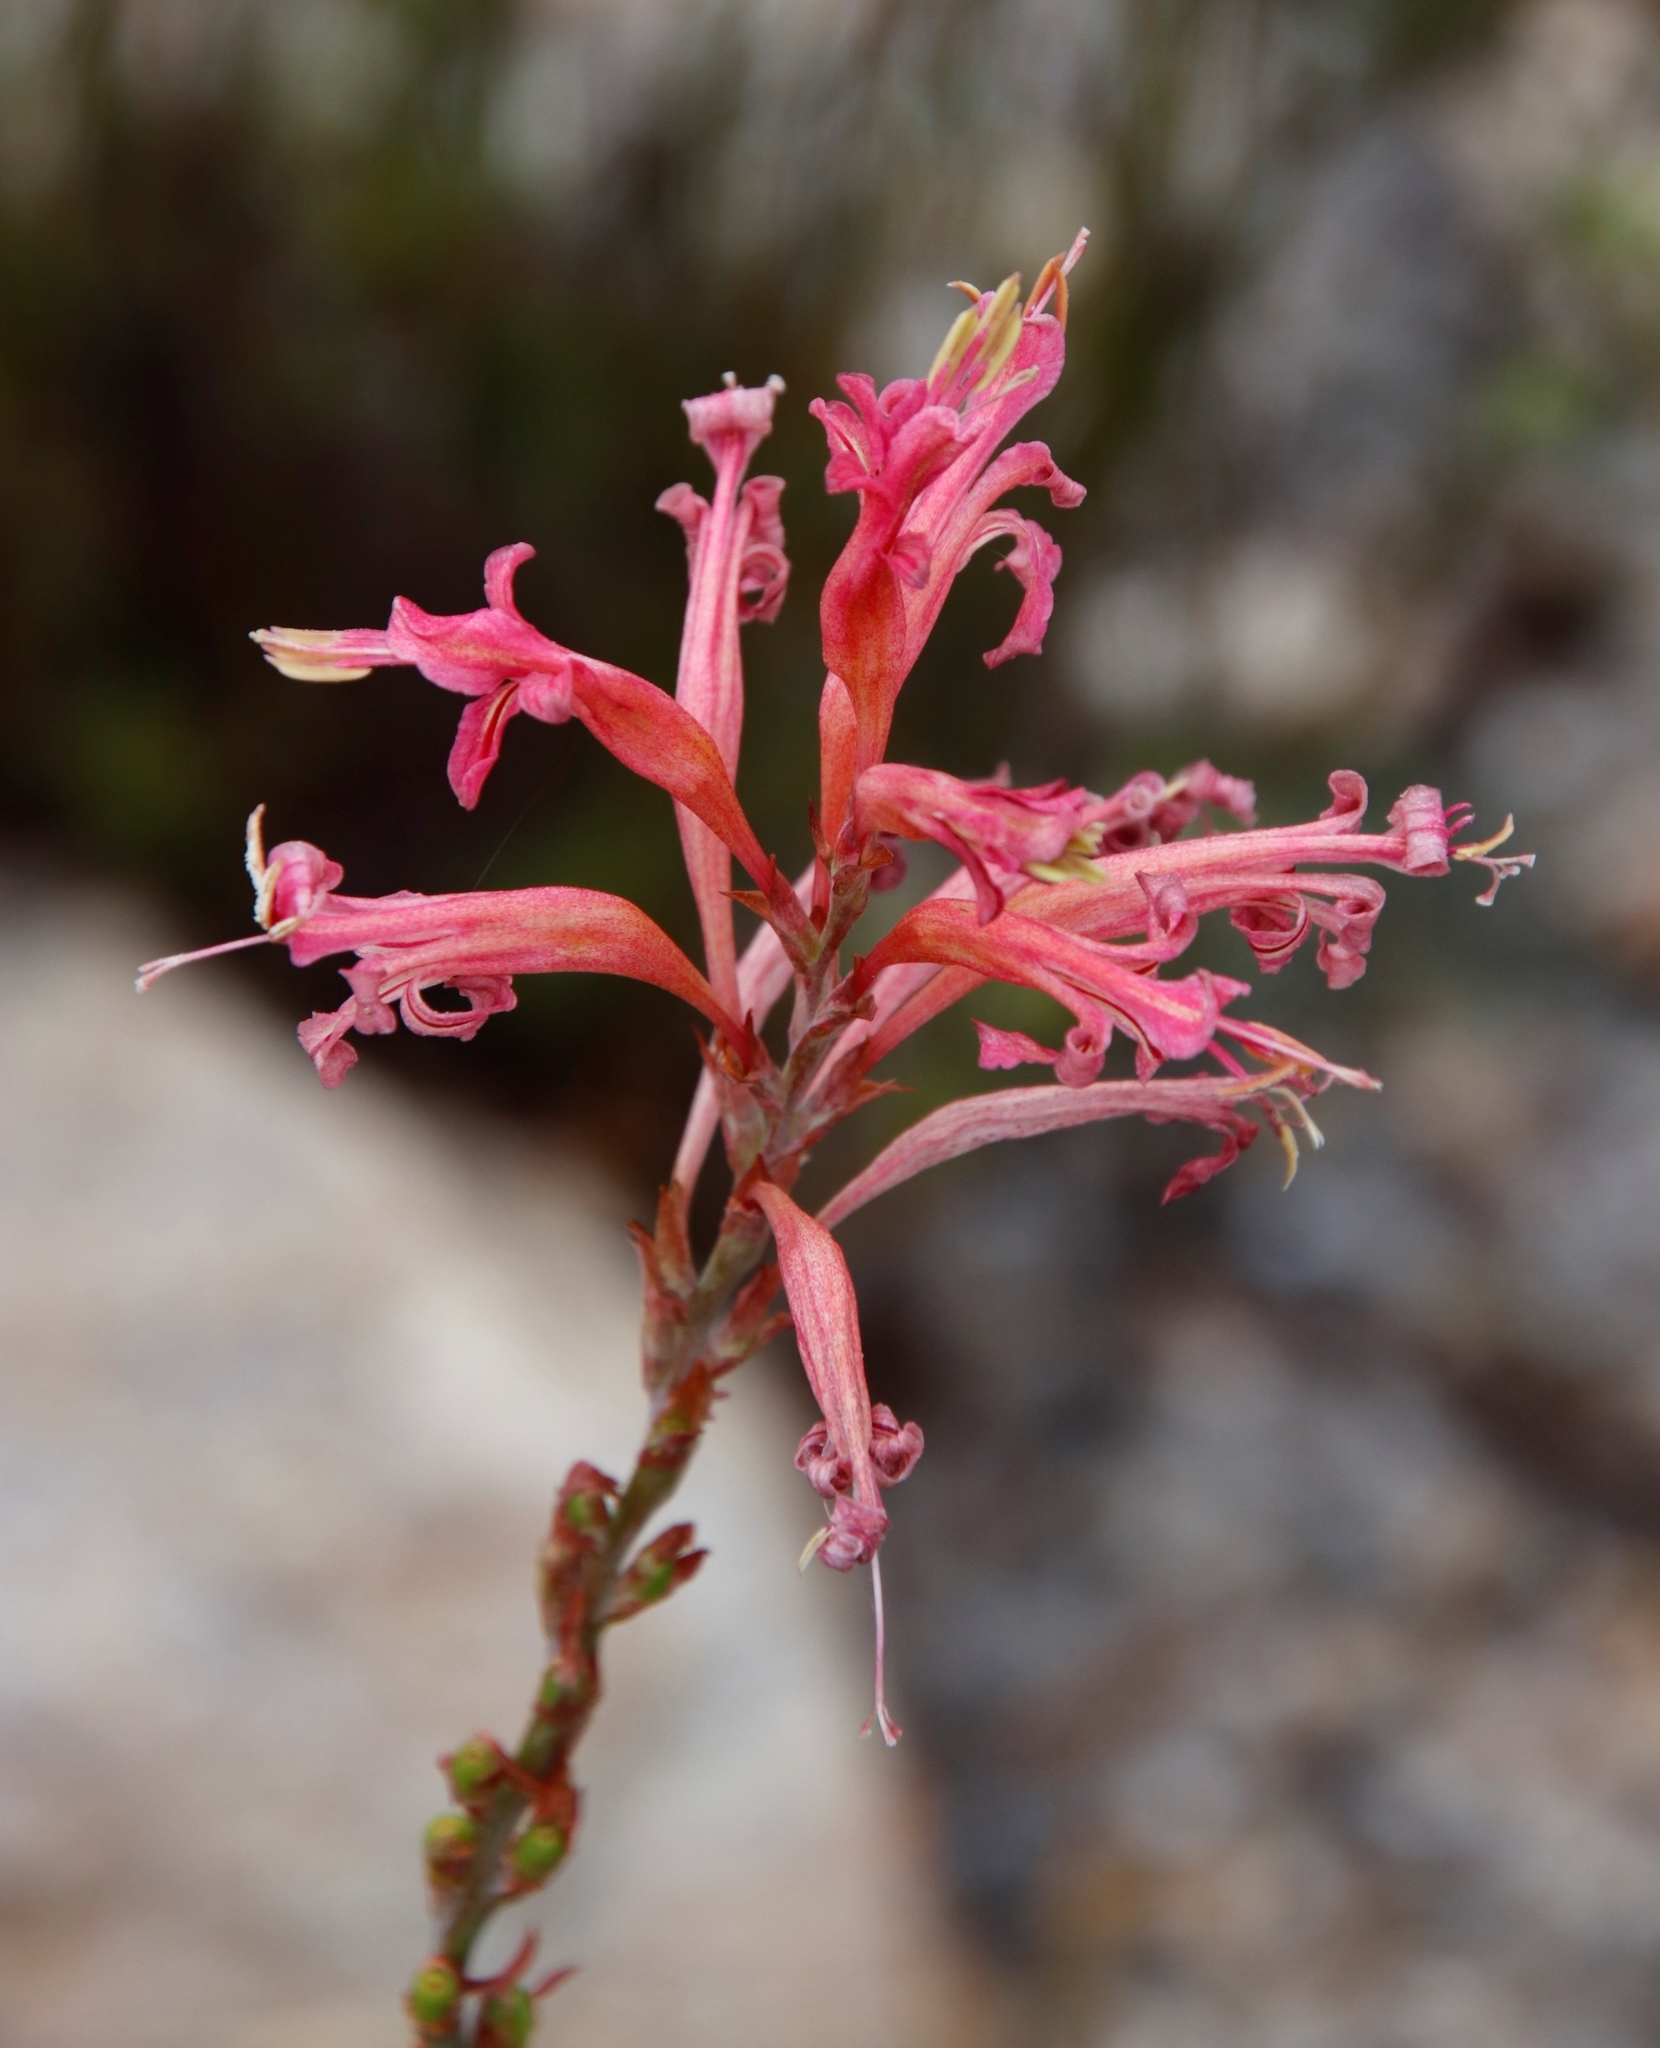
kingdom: Plantae
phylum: Tracheophyta
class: Liliopsida
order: Asparagales
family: Iridaceae
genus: Tritoniopsis
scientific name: Tritoniopsis antholyza
